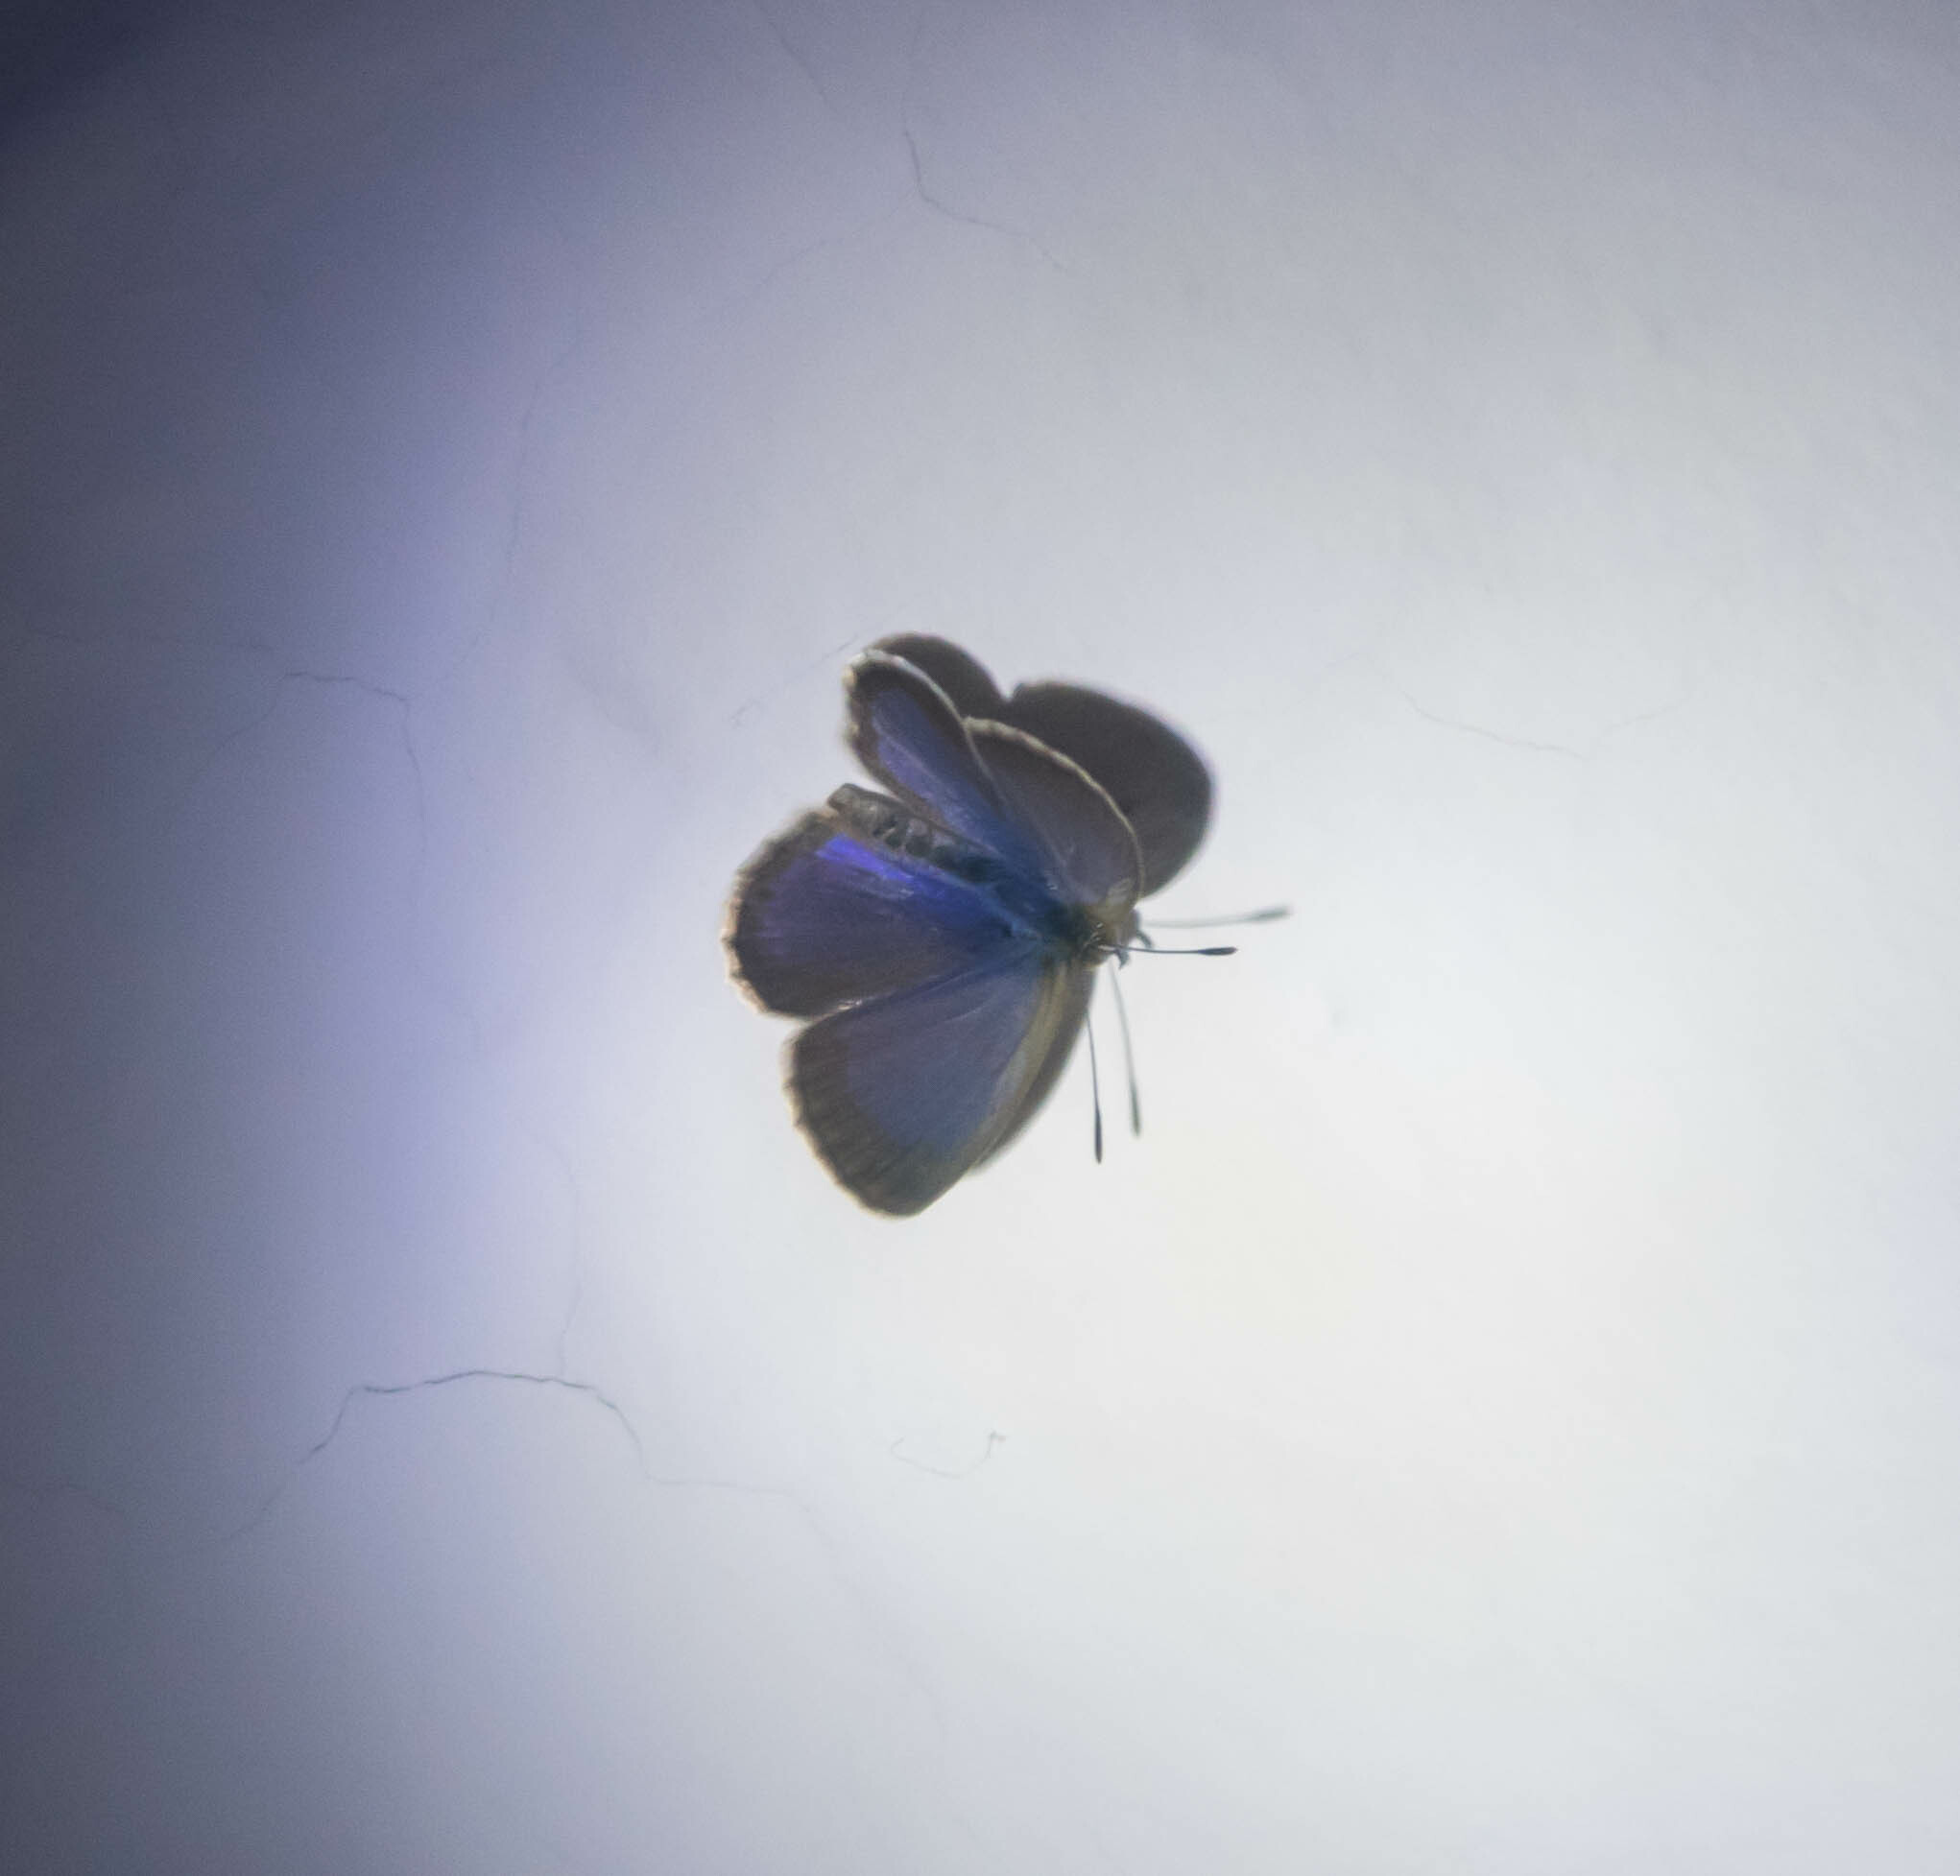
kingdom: Animalia
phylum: Arthropoda
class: Insecta
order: Lepidoptera
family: Lycaenidae
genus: Zizina
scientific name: Zizina otis
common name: Lesser grass blue
